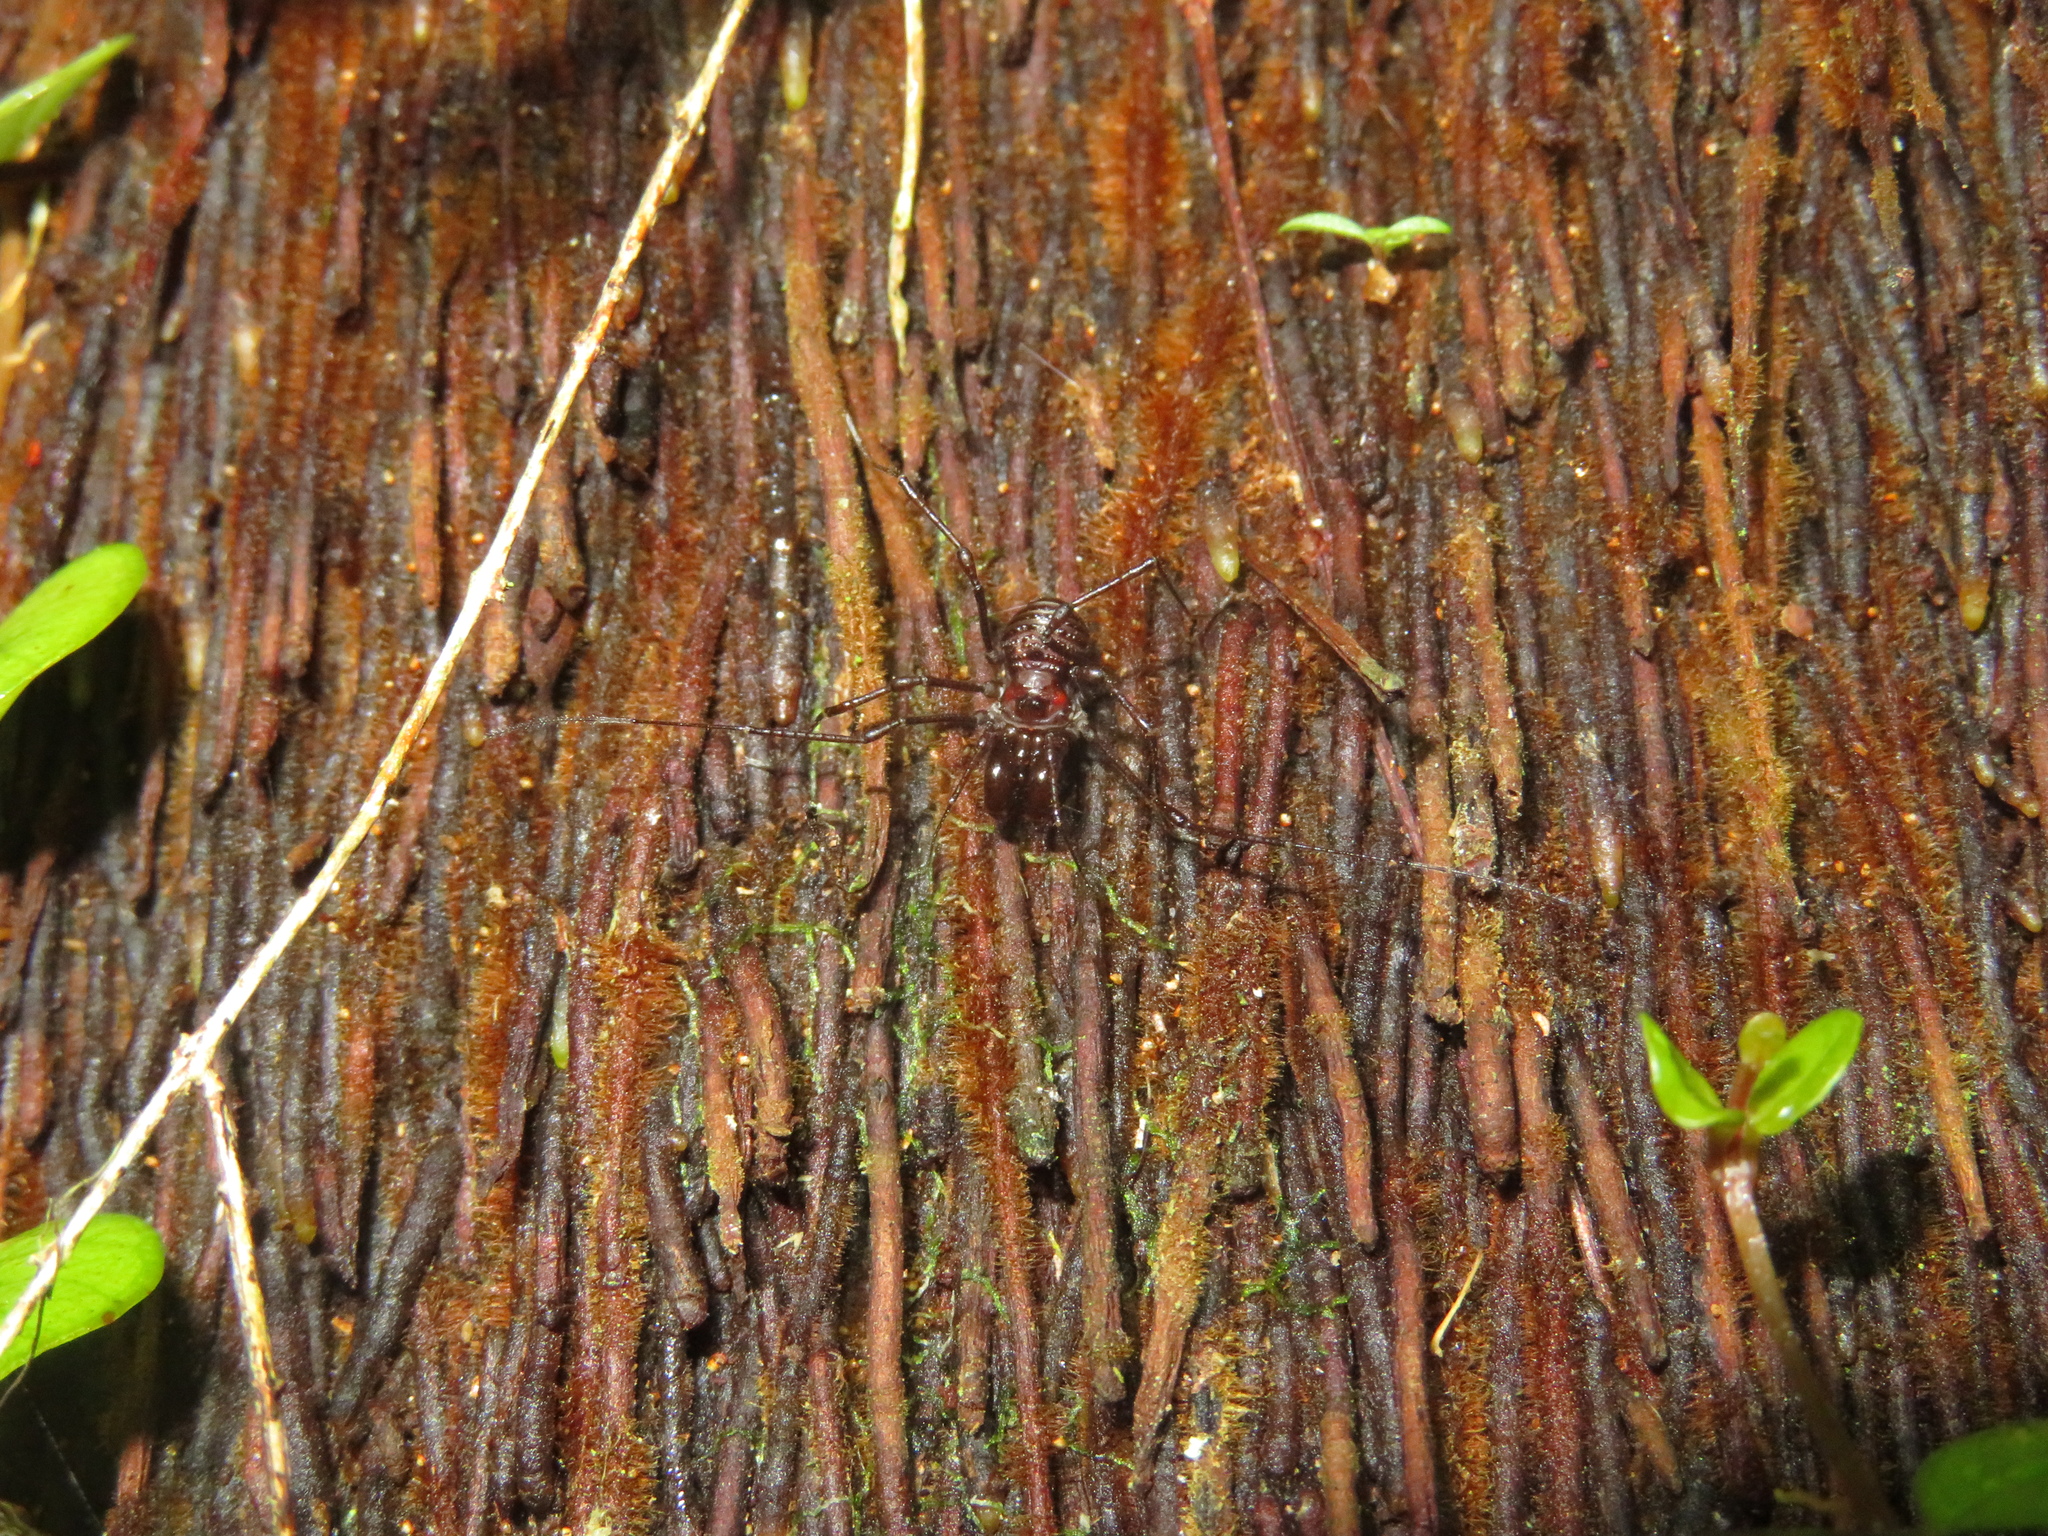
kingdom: Animalia
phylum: Arthropoda
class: Arachnida
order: Opiliones
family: Triaenonychidae
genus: Hendea
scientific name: Hendea myersi
